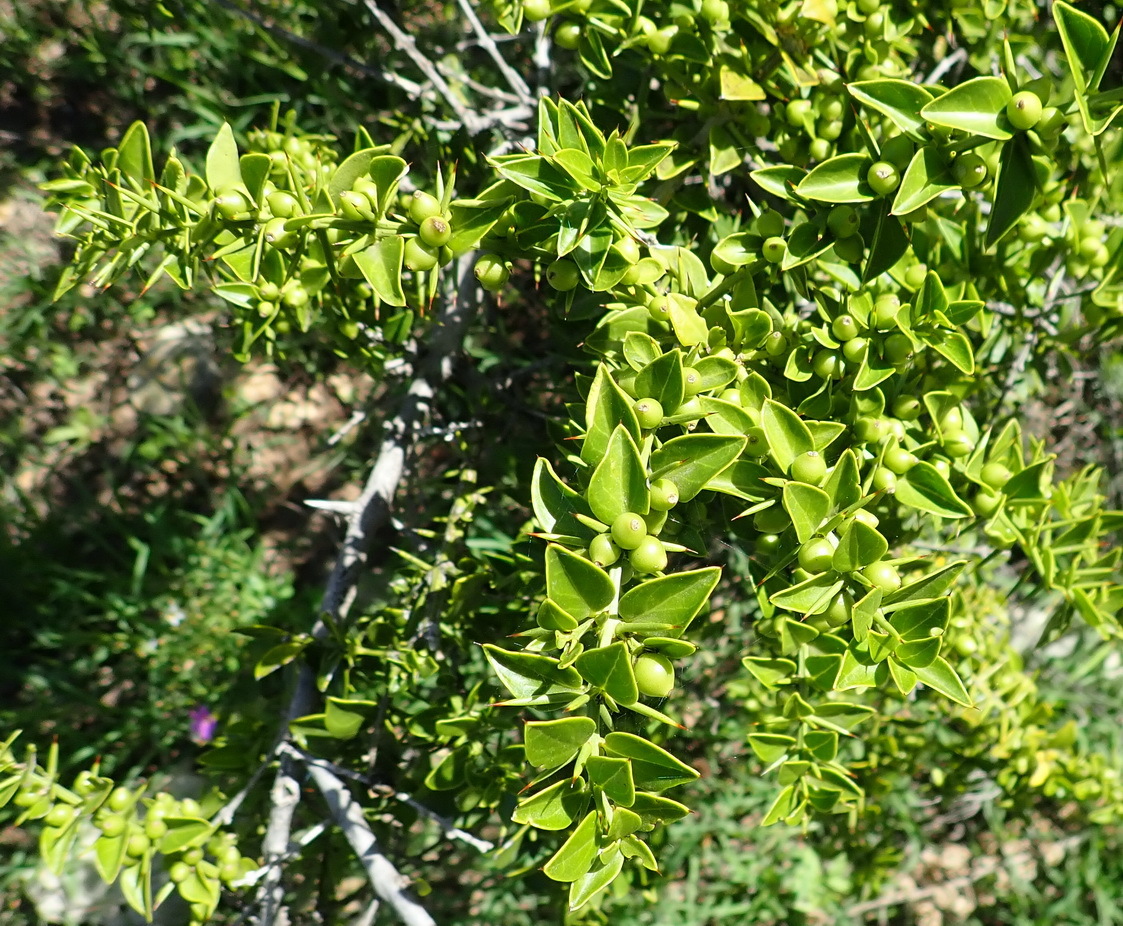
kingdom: Plantae
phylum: Tracheophyta
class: Magnoliopsida
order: Brassicales
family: Salvadoraceae
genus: Azima
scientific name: Azima tetracantha
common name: Needle bush
